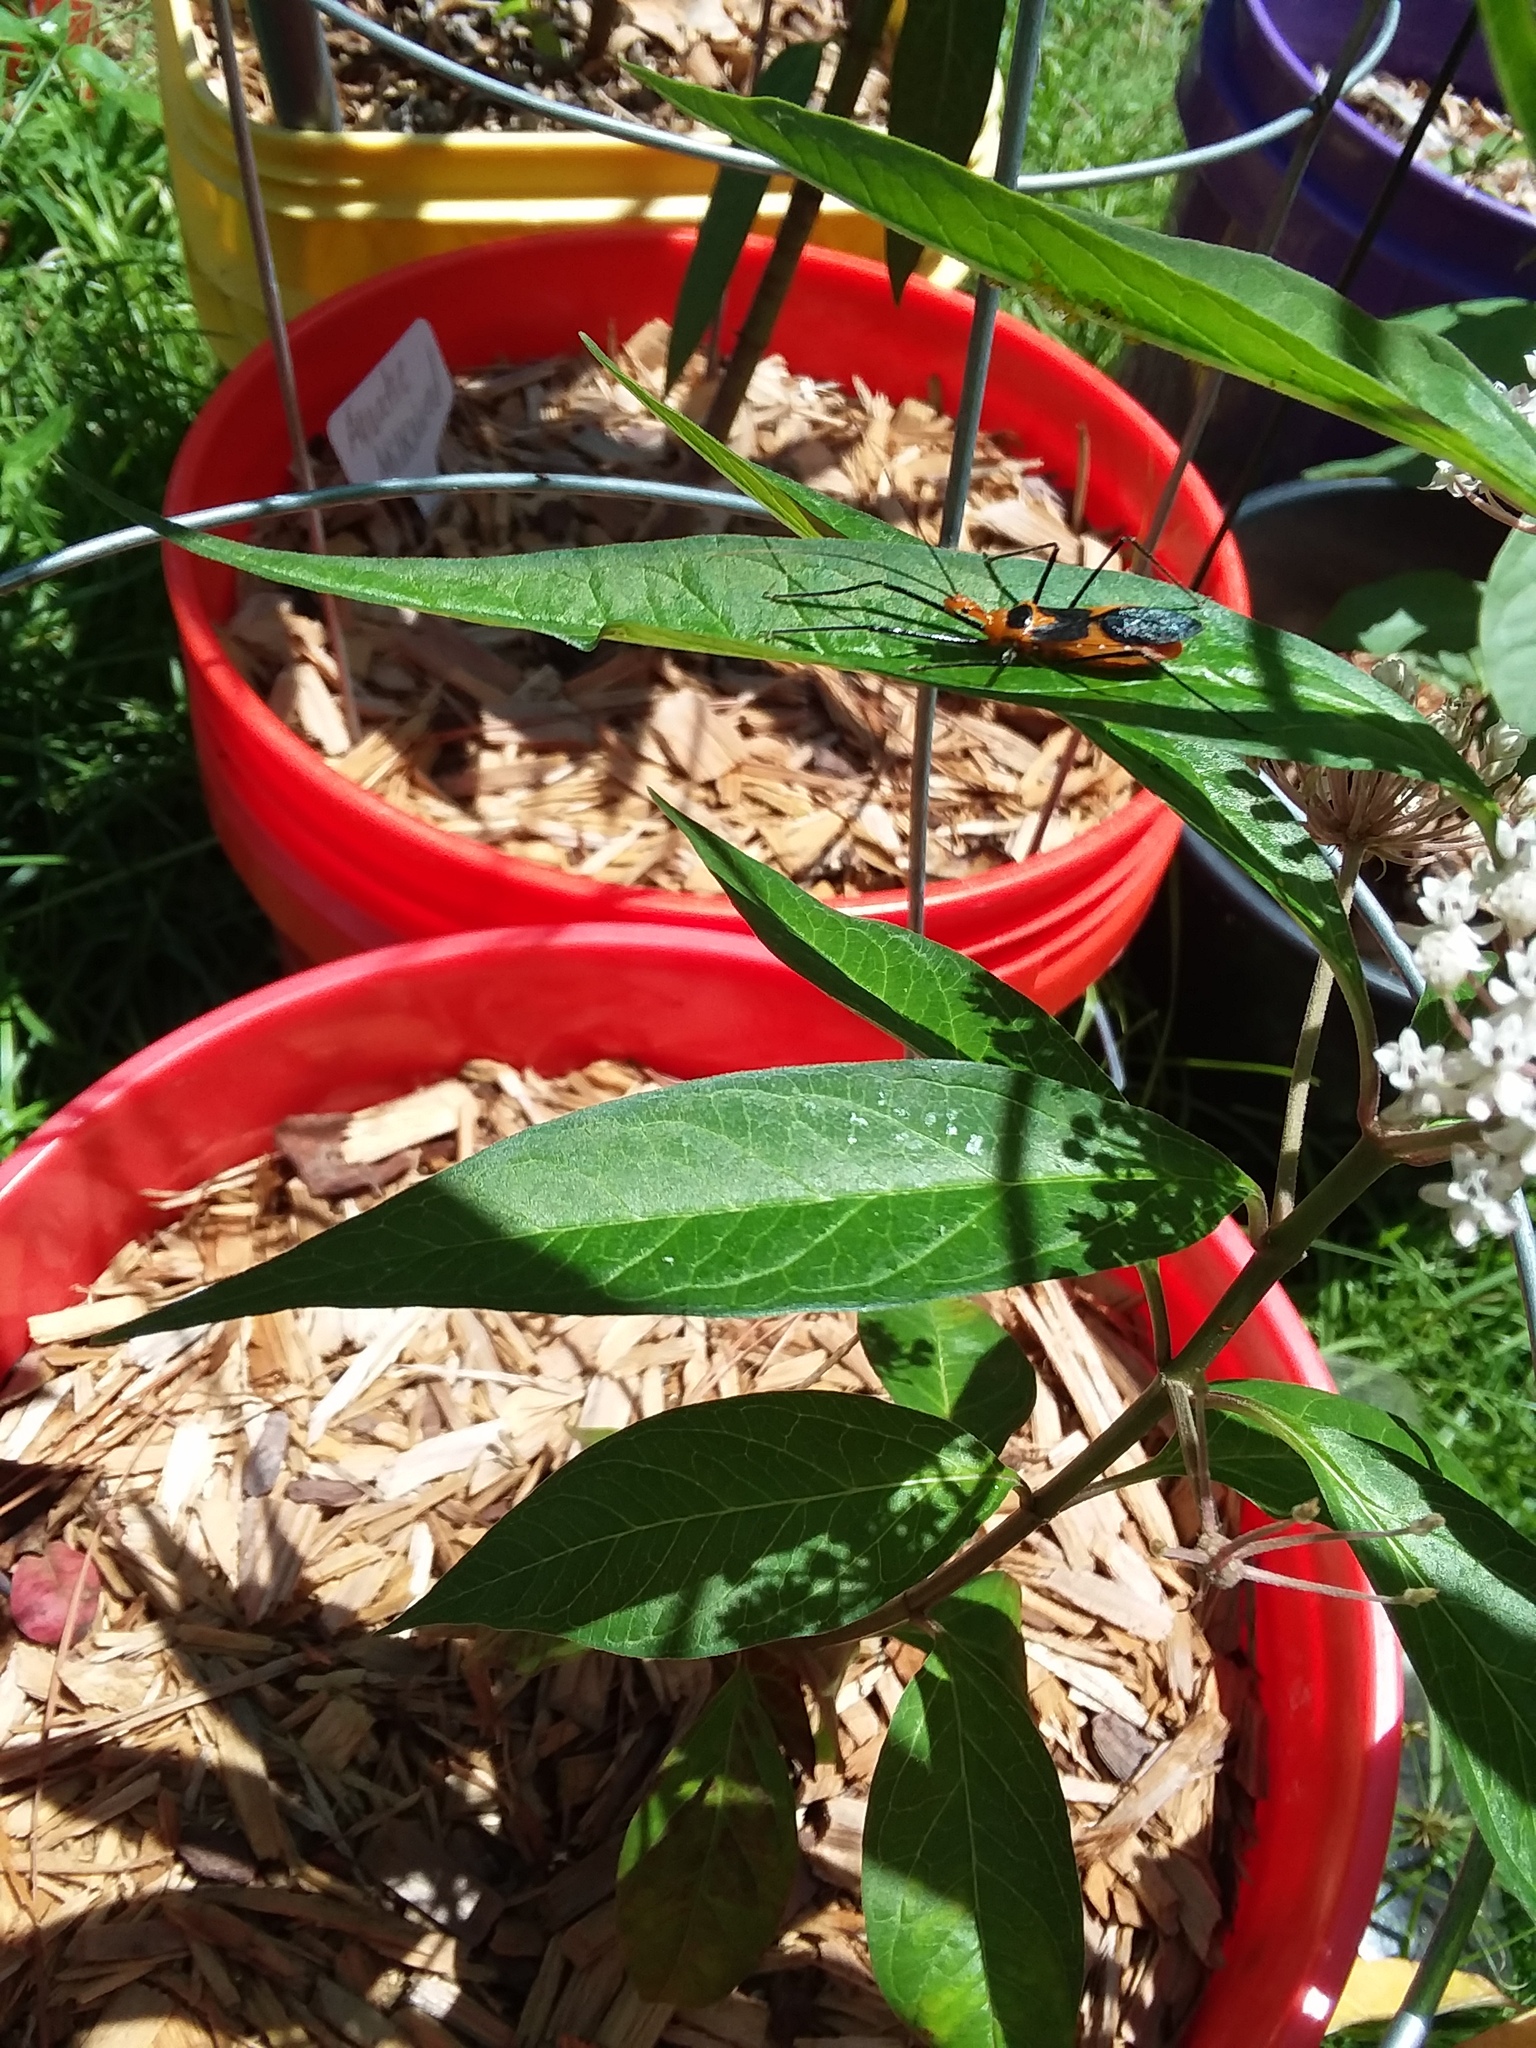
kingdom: Animalia
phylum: Arthropoda
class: Insecta
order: Hemiptera
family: Reduviidae
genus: Zelus
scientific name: Zelus longipes
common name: Milkweed assassin bug
